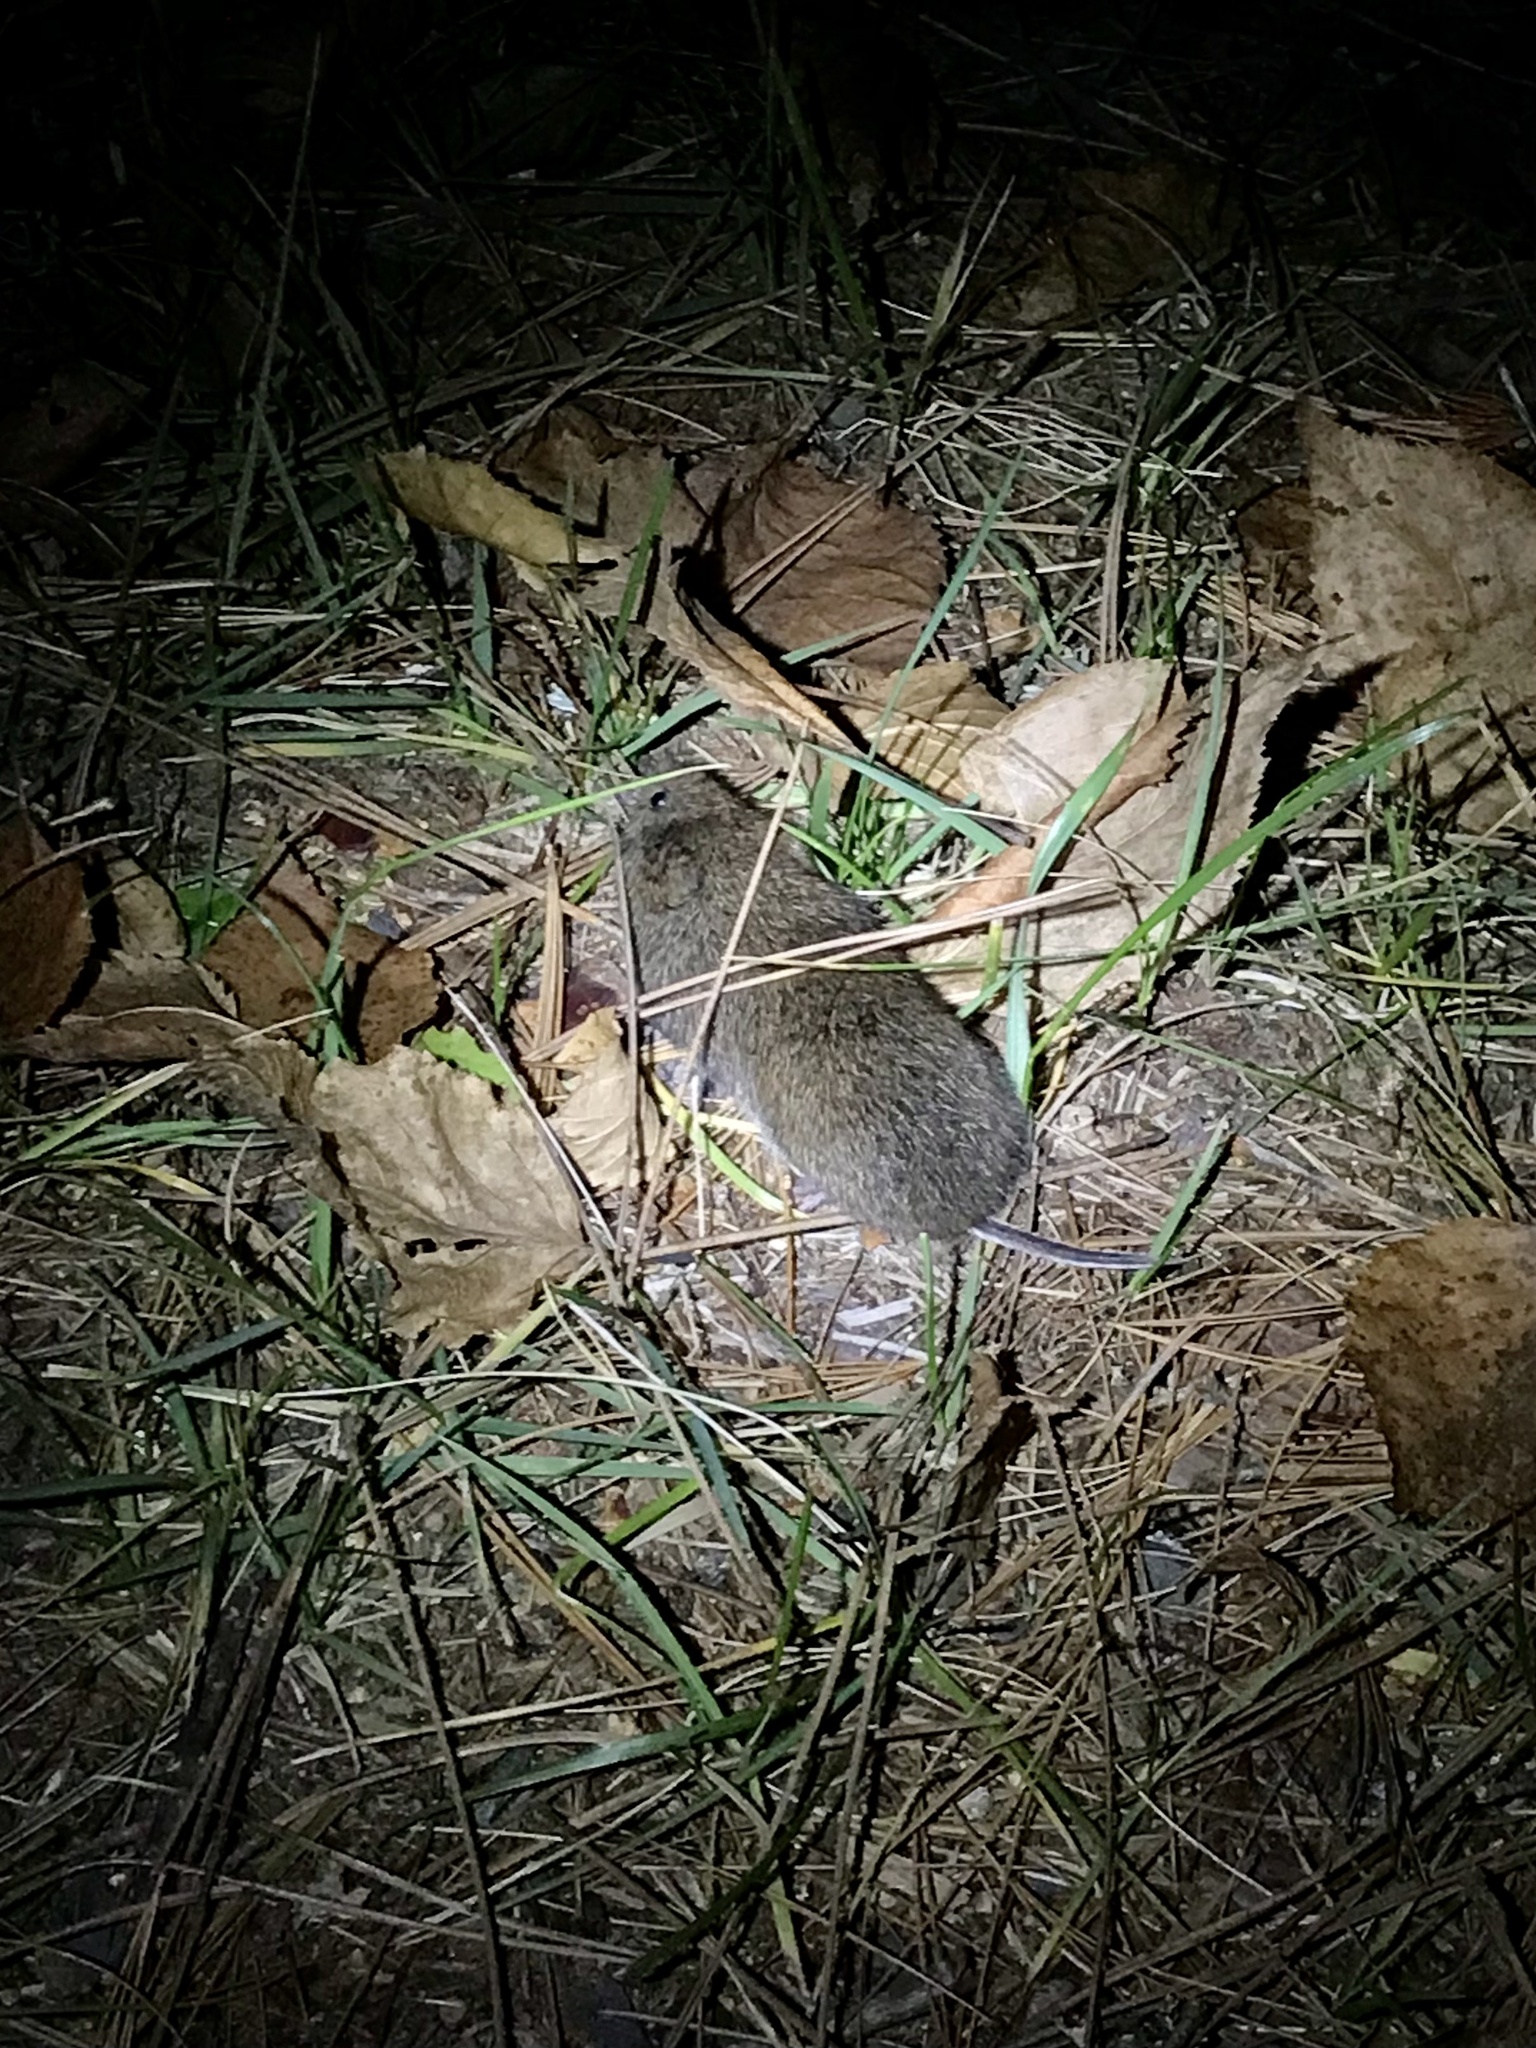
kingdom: Animalia
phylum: Chordata
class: Mammalia
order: Rodentia
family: Cricetidae
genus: Microtus
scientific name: Microtus pennsylvanicus
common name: Meadow vole
